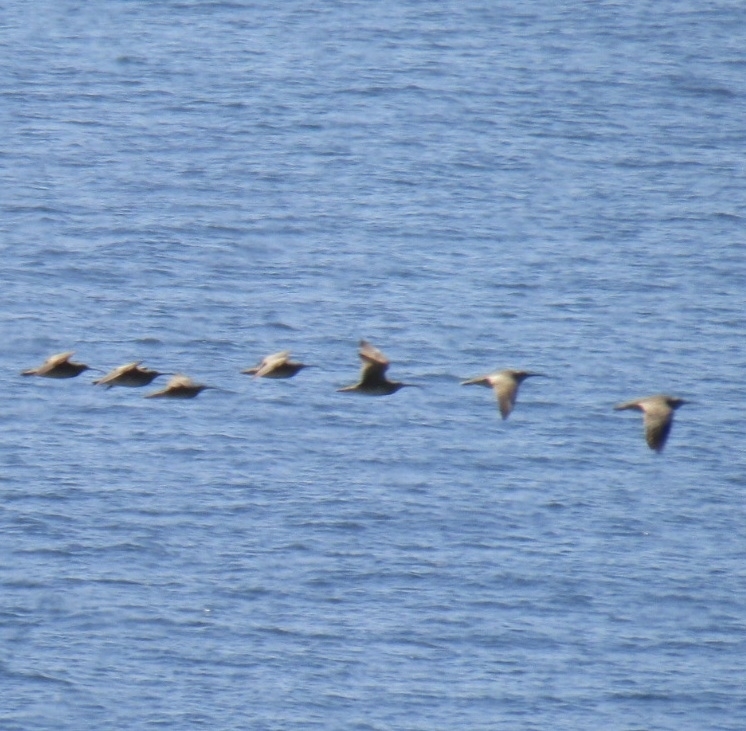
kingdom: Animalia
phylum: Chordata
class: Aves
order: Charadriiformes
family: Scolopacidae
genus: Numenius
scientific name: Numenius phaeopus
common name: Whimbrel
